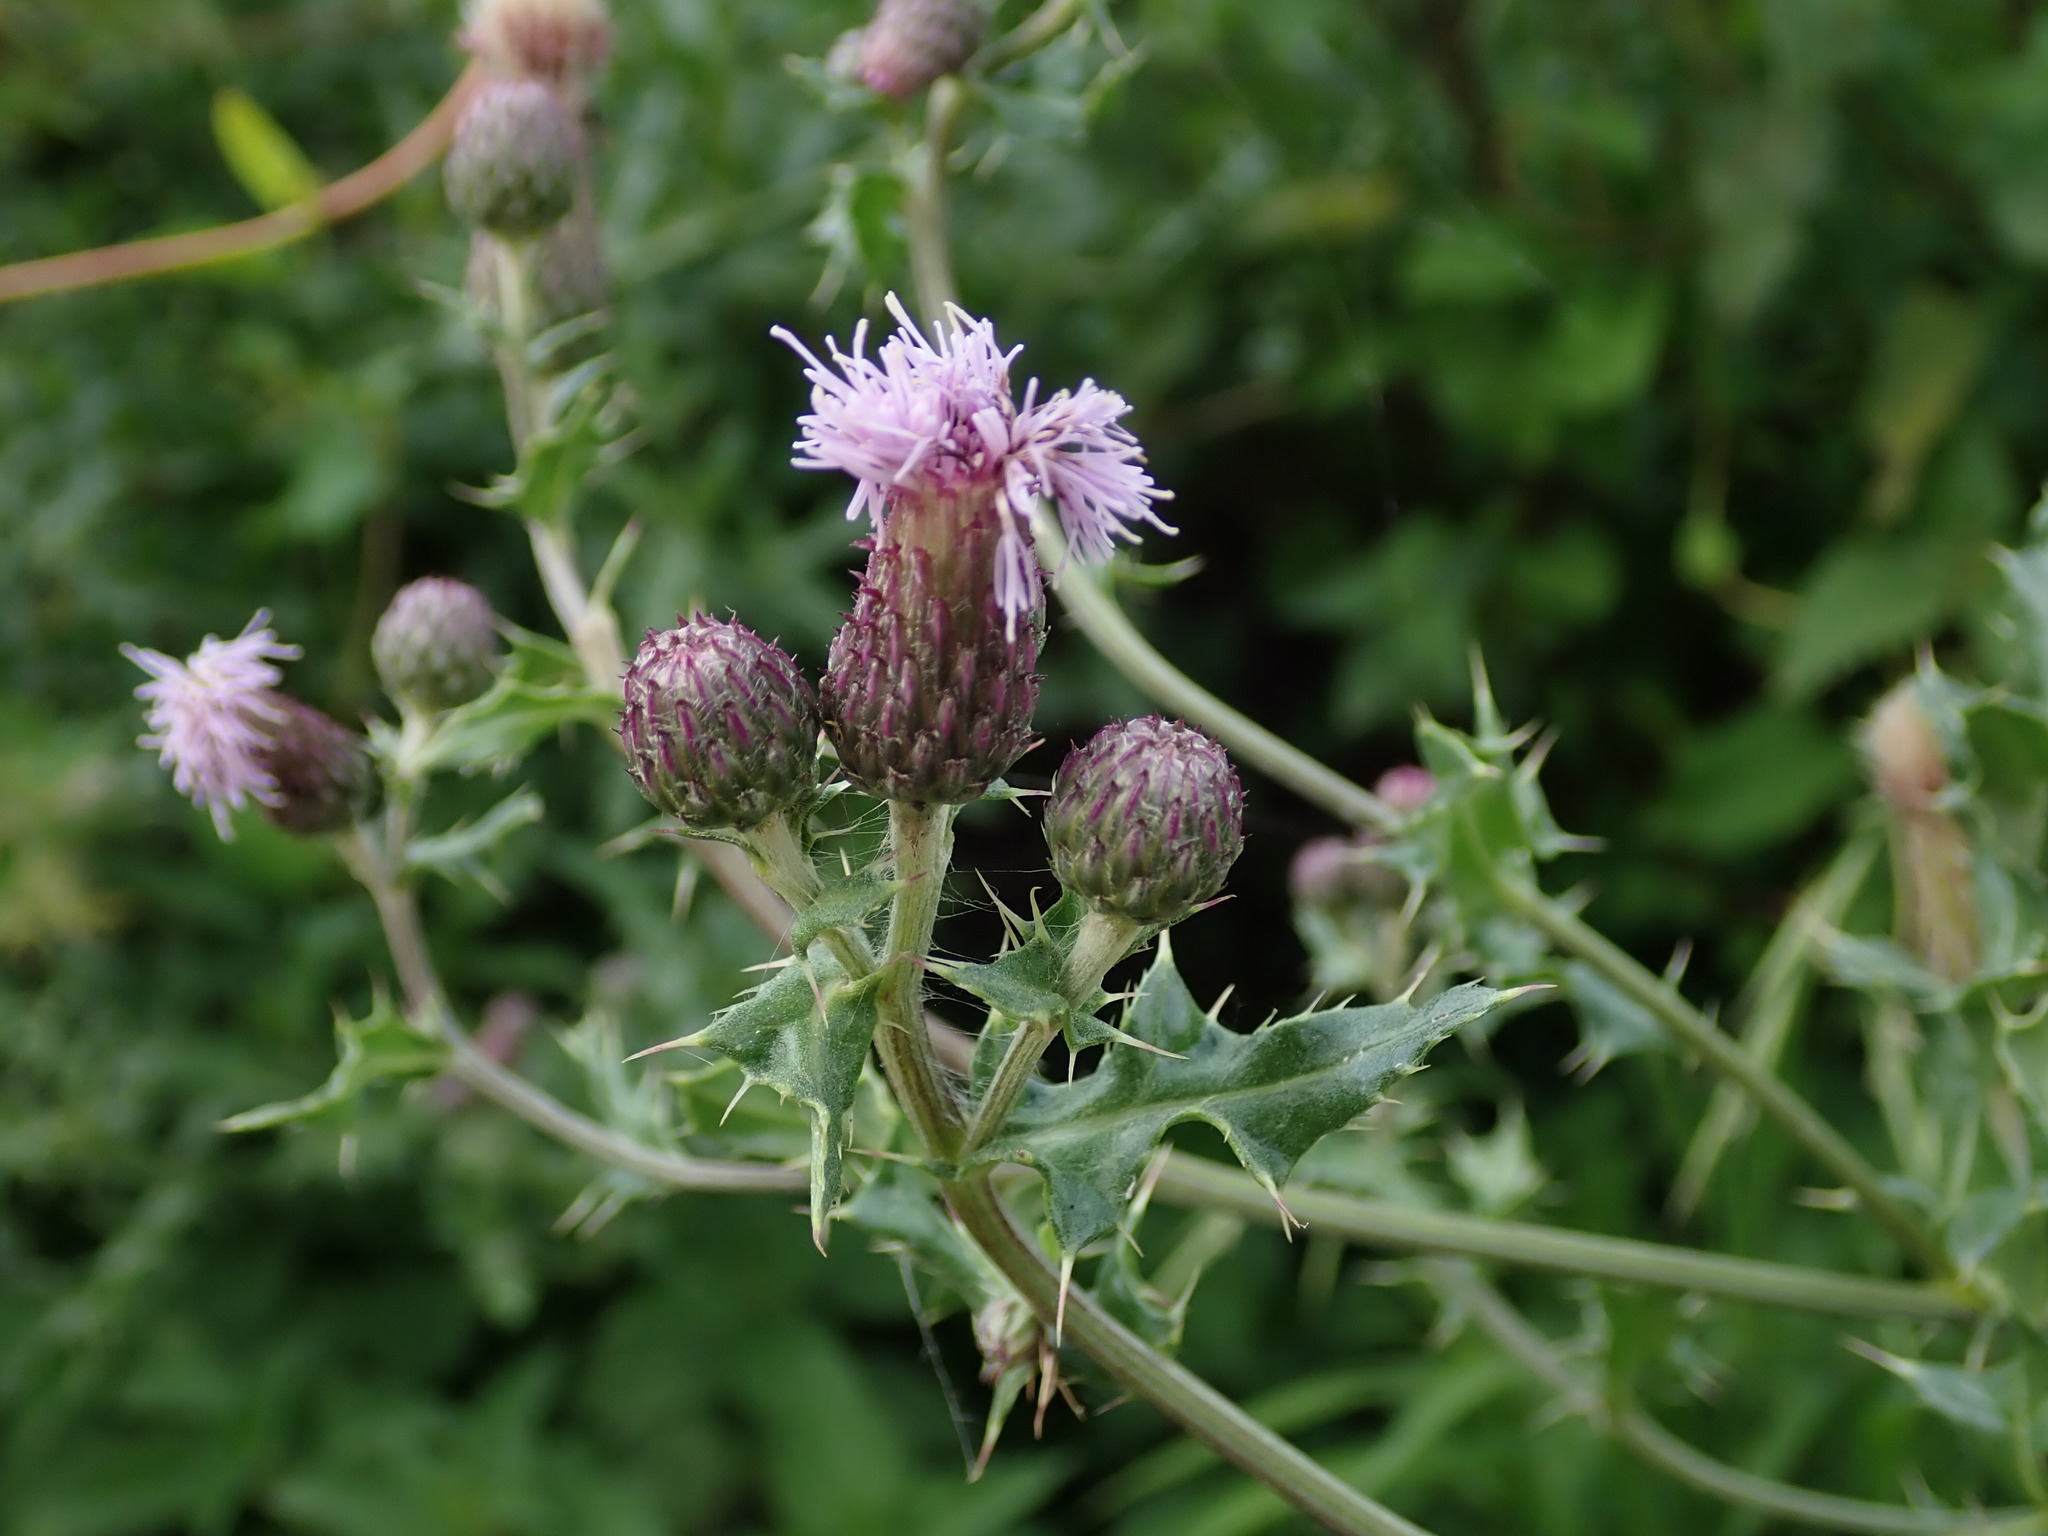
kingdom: Plantae
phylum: Tracheophyta
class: Magnoliopsida
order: Asterales
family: Asteraceae
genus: Cirsium
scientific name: Cirsium arvense
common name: Creeping thistle
